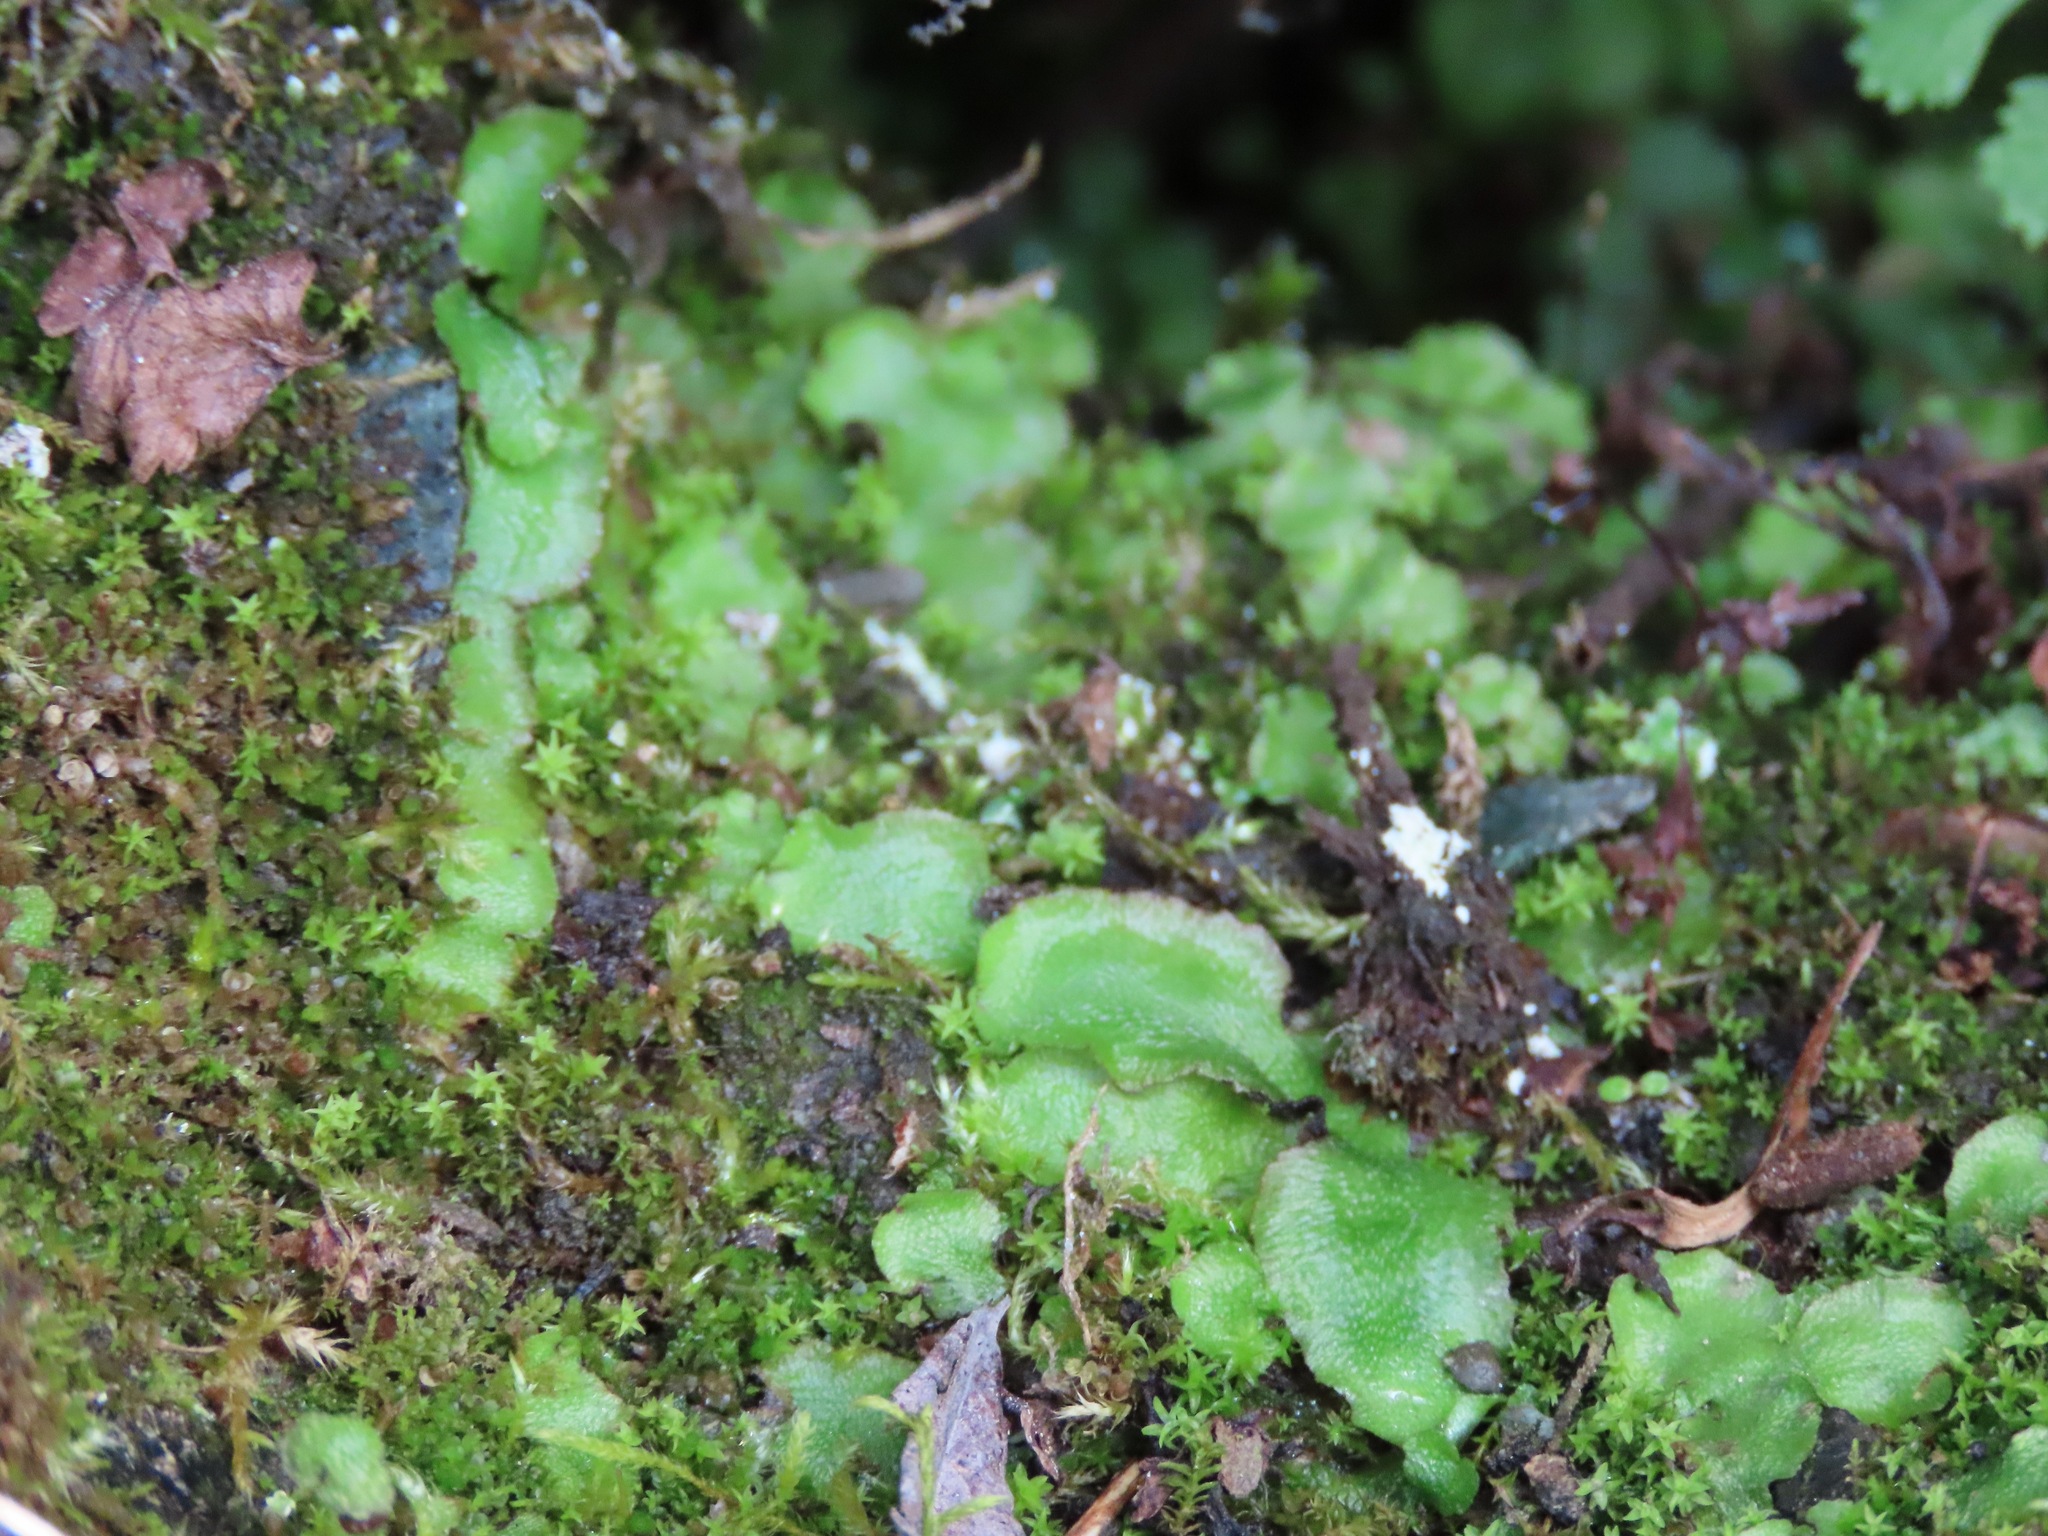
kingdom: Plantae
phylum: Marchantiophyta
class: Marchantiopsida
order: Marchantiales
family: Aytoniaceae
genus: Asterella
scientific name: Asterella lindenbergiana
